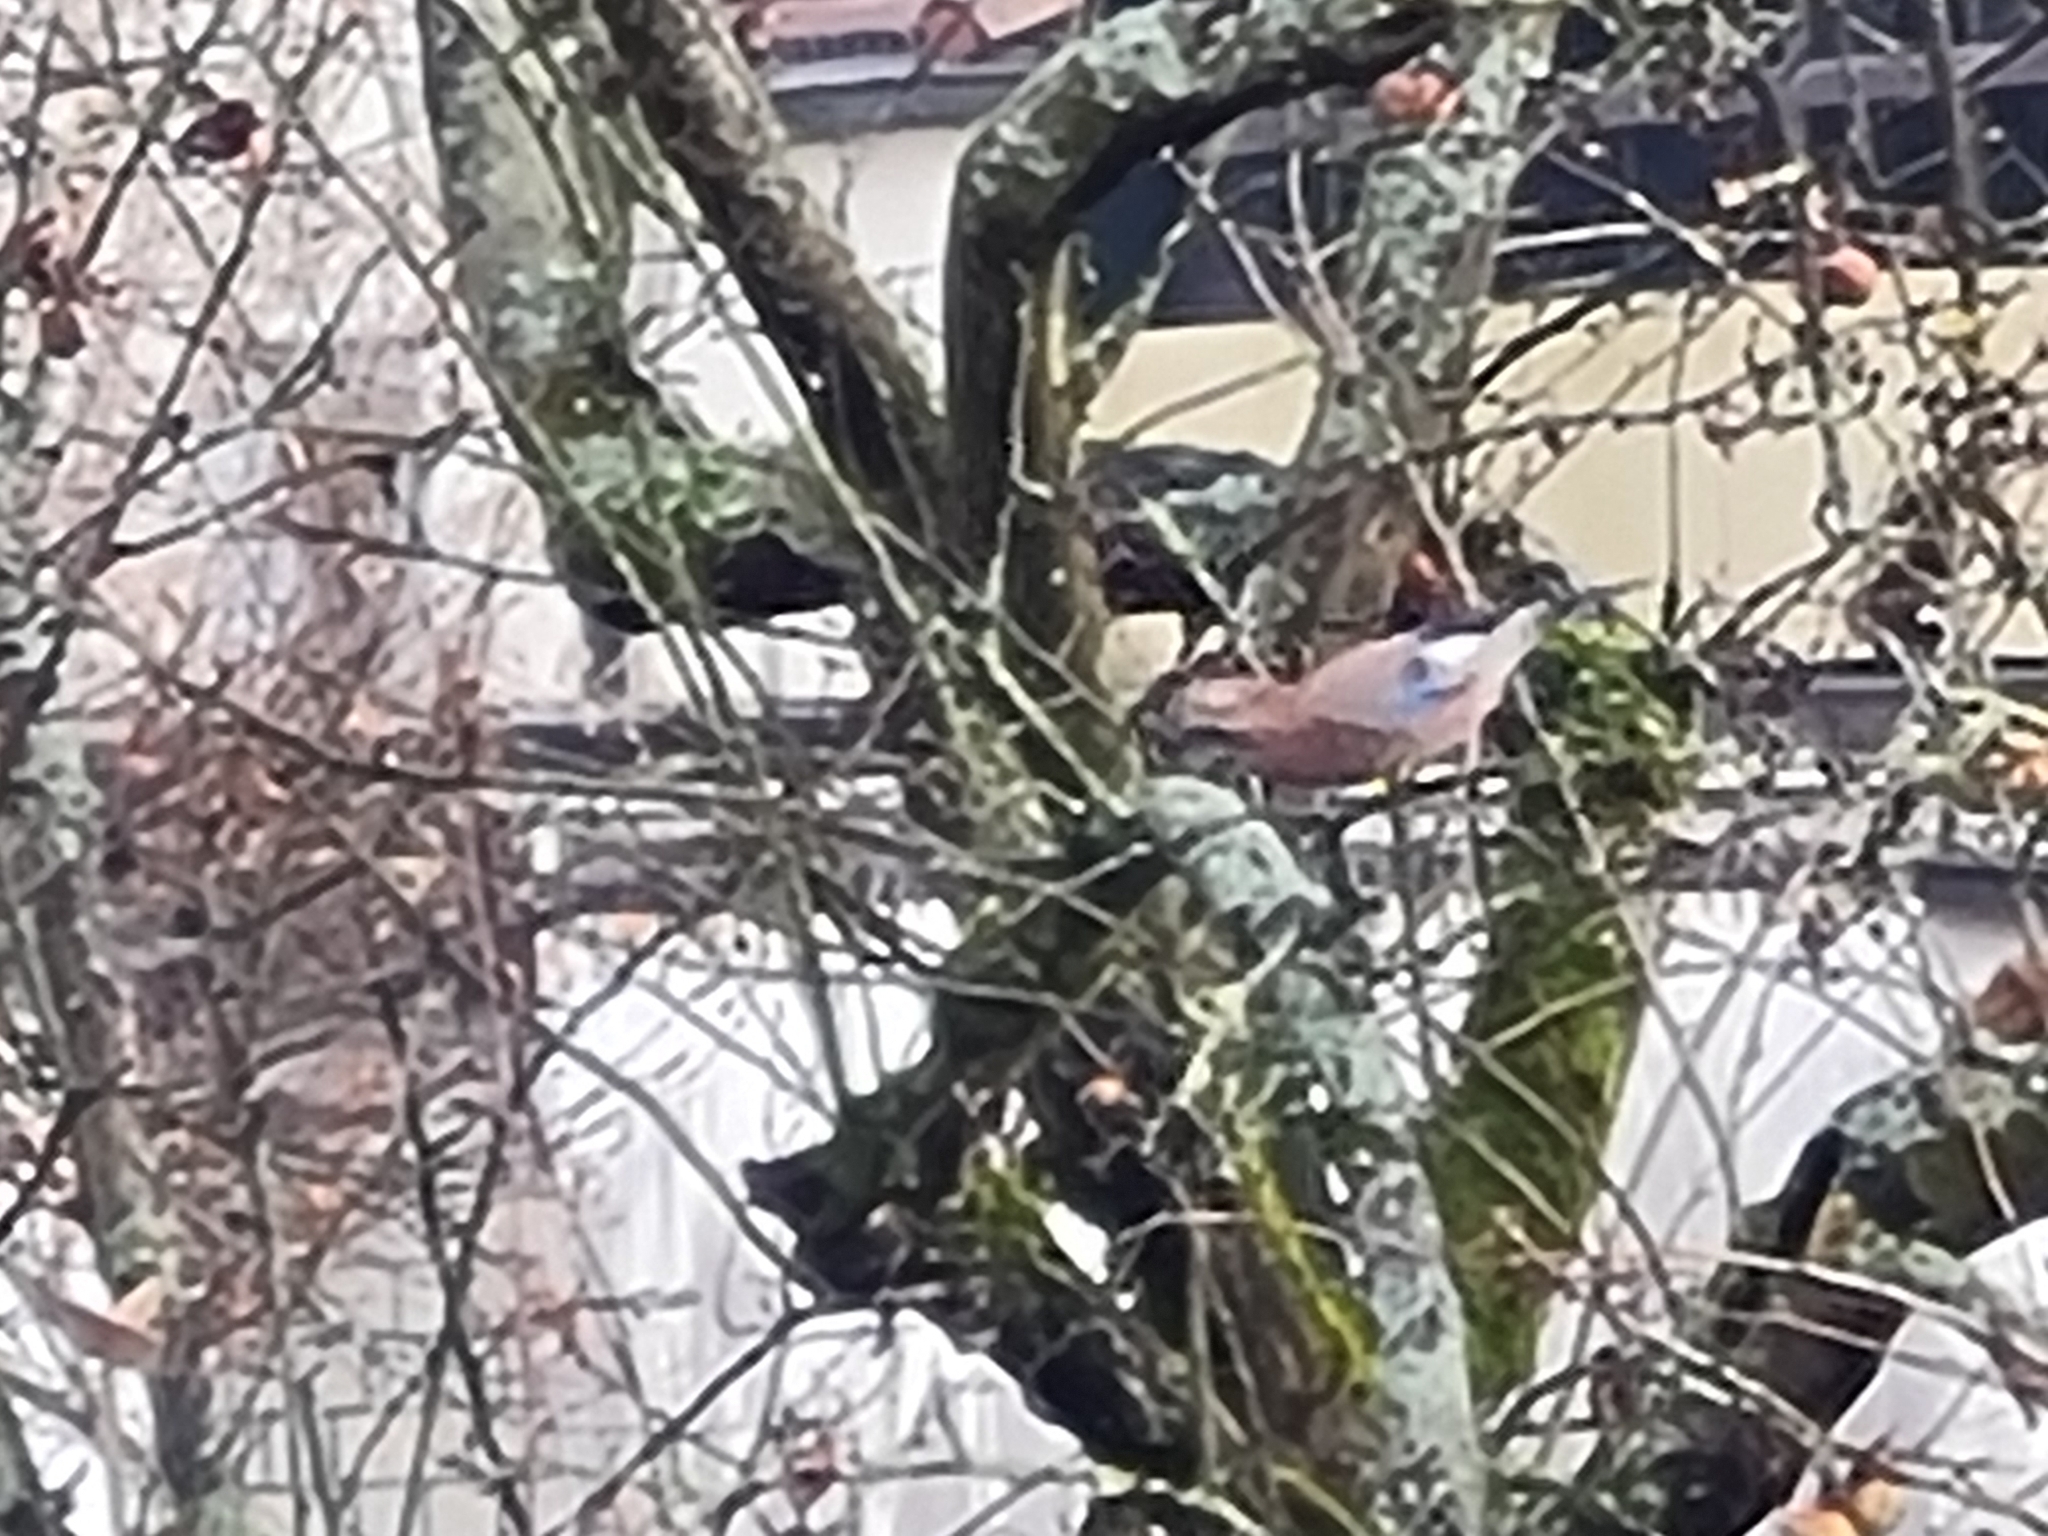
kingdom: Animalia
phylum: Chordata
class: Aves
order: Passeriformes
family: Corvidae
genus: Garrulus
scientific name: Garrulus glandarius
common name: Eurasian jay
